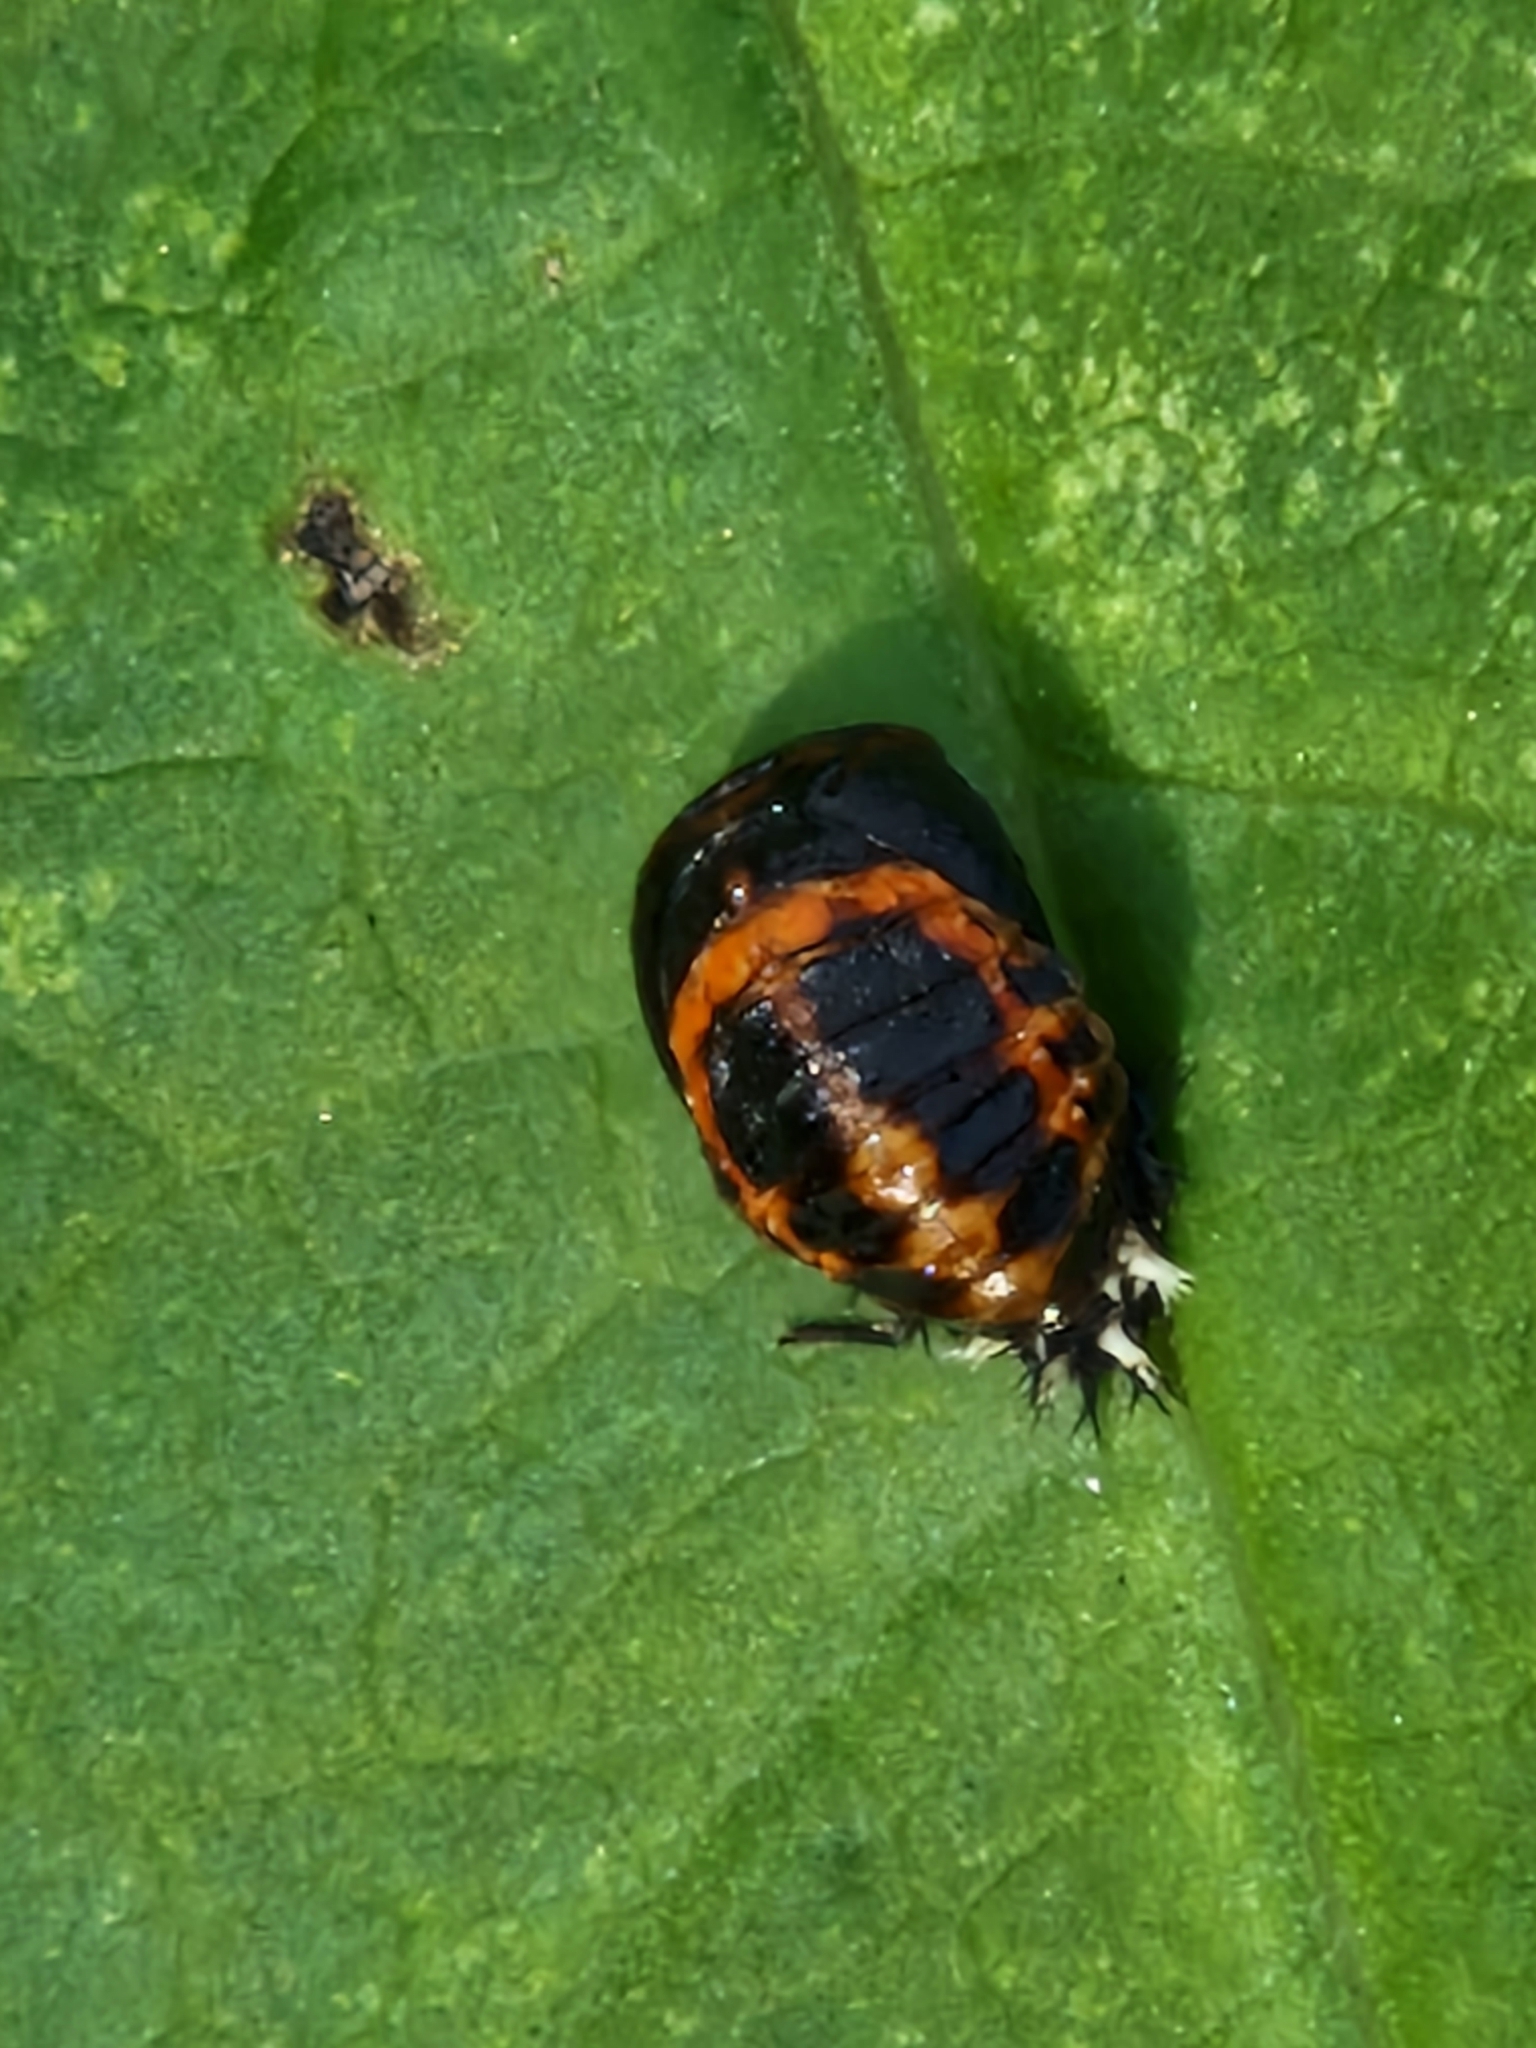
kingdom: Animalia
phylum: Arthropoda
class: Insecta
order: Coleoptera
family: Coccinellidae
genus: Harmonia
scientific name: Harmonia axyridis
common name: Harlequin ladybird
